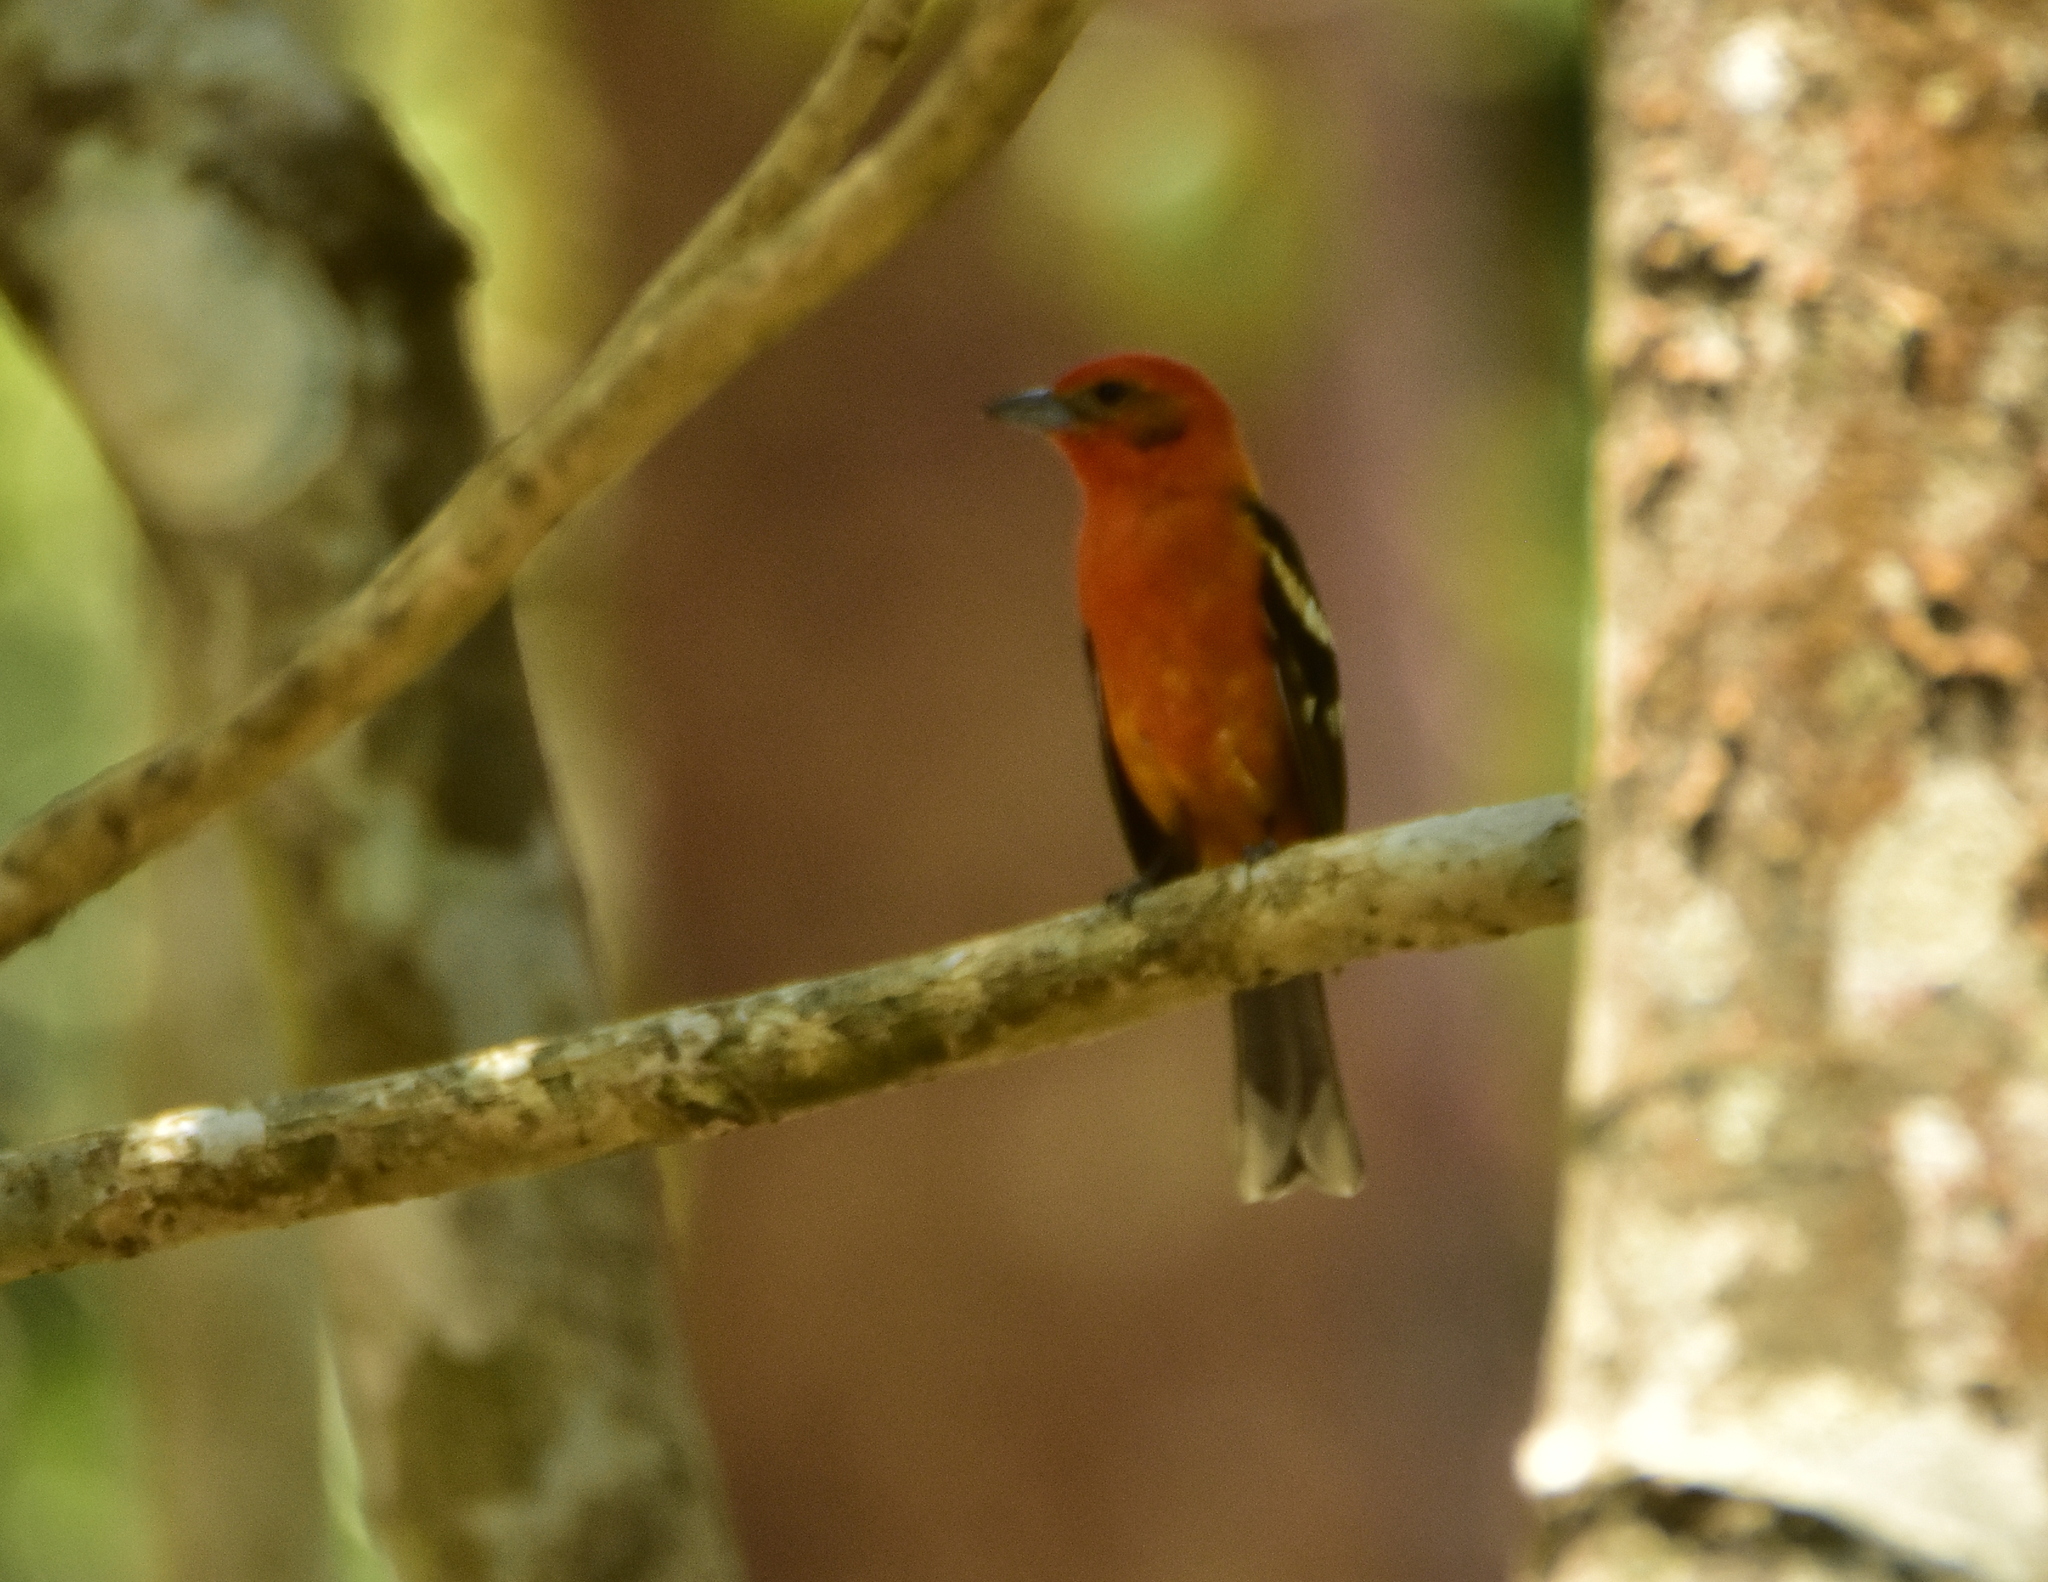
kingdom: Animalia
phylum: Chordata
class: Aves
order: Passeriformes
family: Cardinalidae
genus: Piranga
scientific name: Piranga bidentata
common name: Flame-colored tanager
